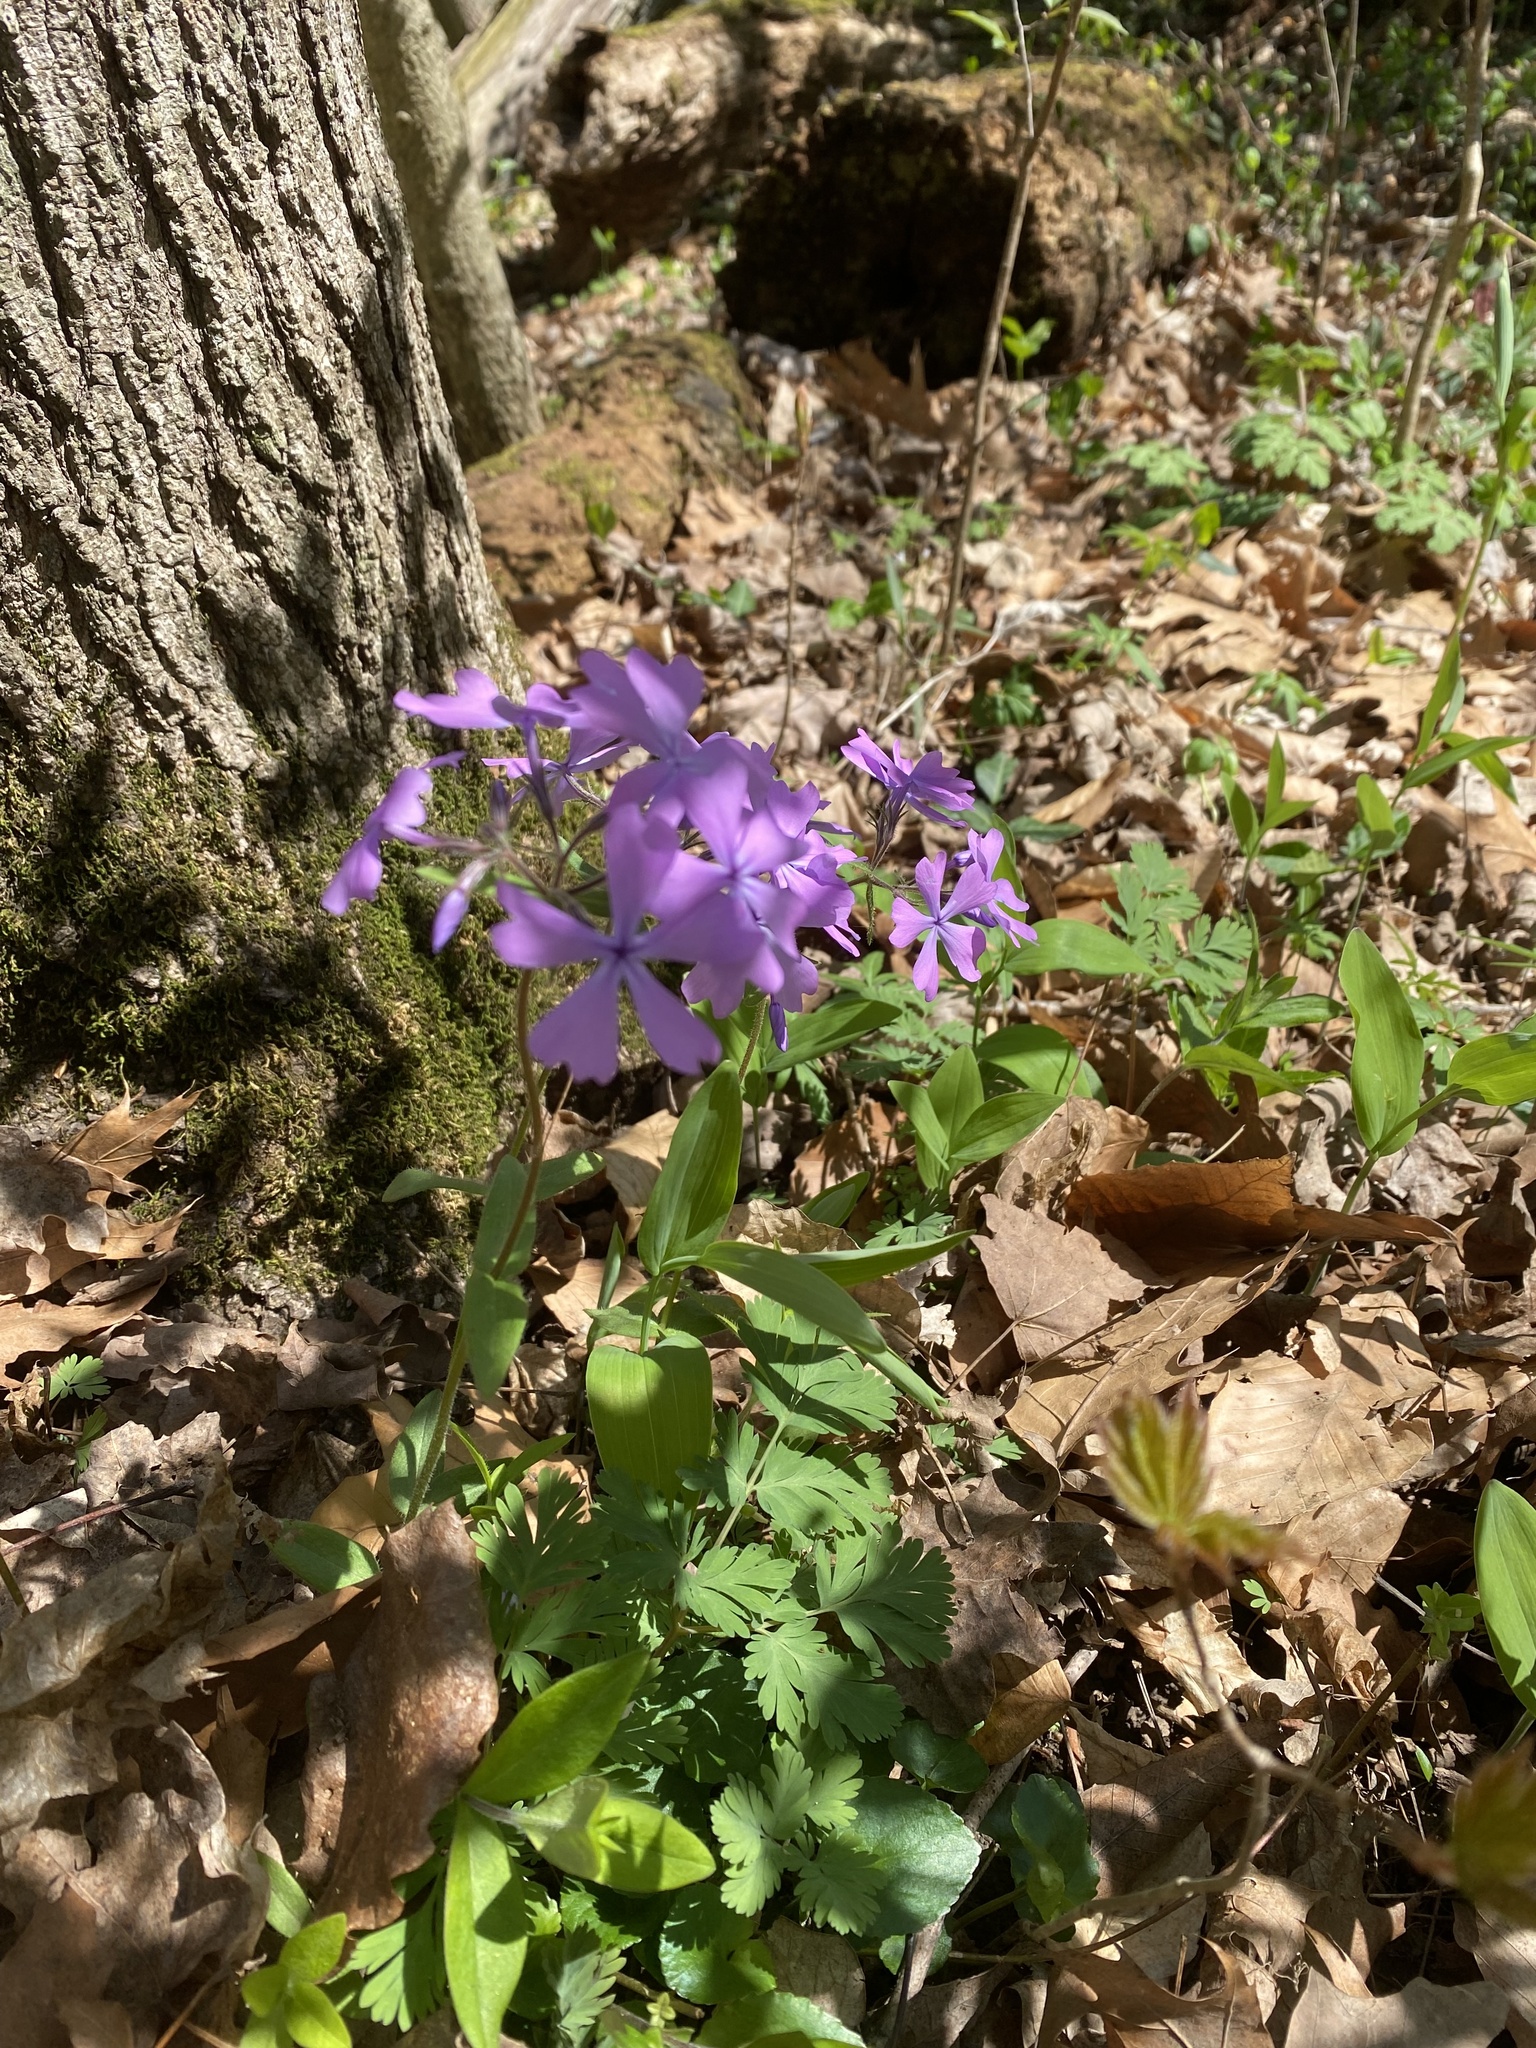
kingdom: Plantae
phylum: Tracheophyta
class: Magnoliopsida
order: Ericales
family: Polemoniaceae
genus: Phlox
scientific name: Phlox divaricata
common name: Blue phlox
